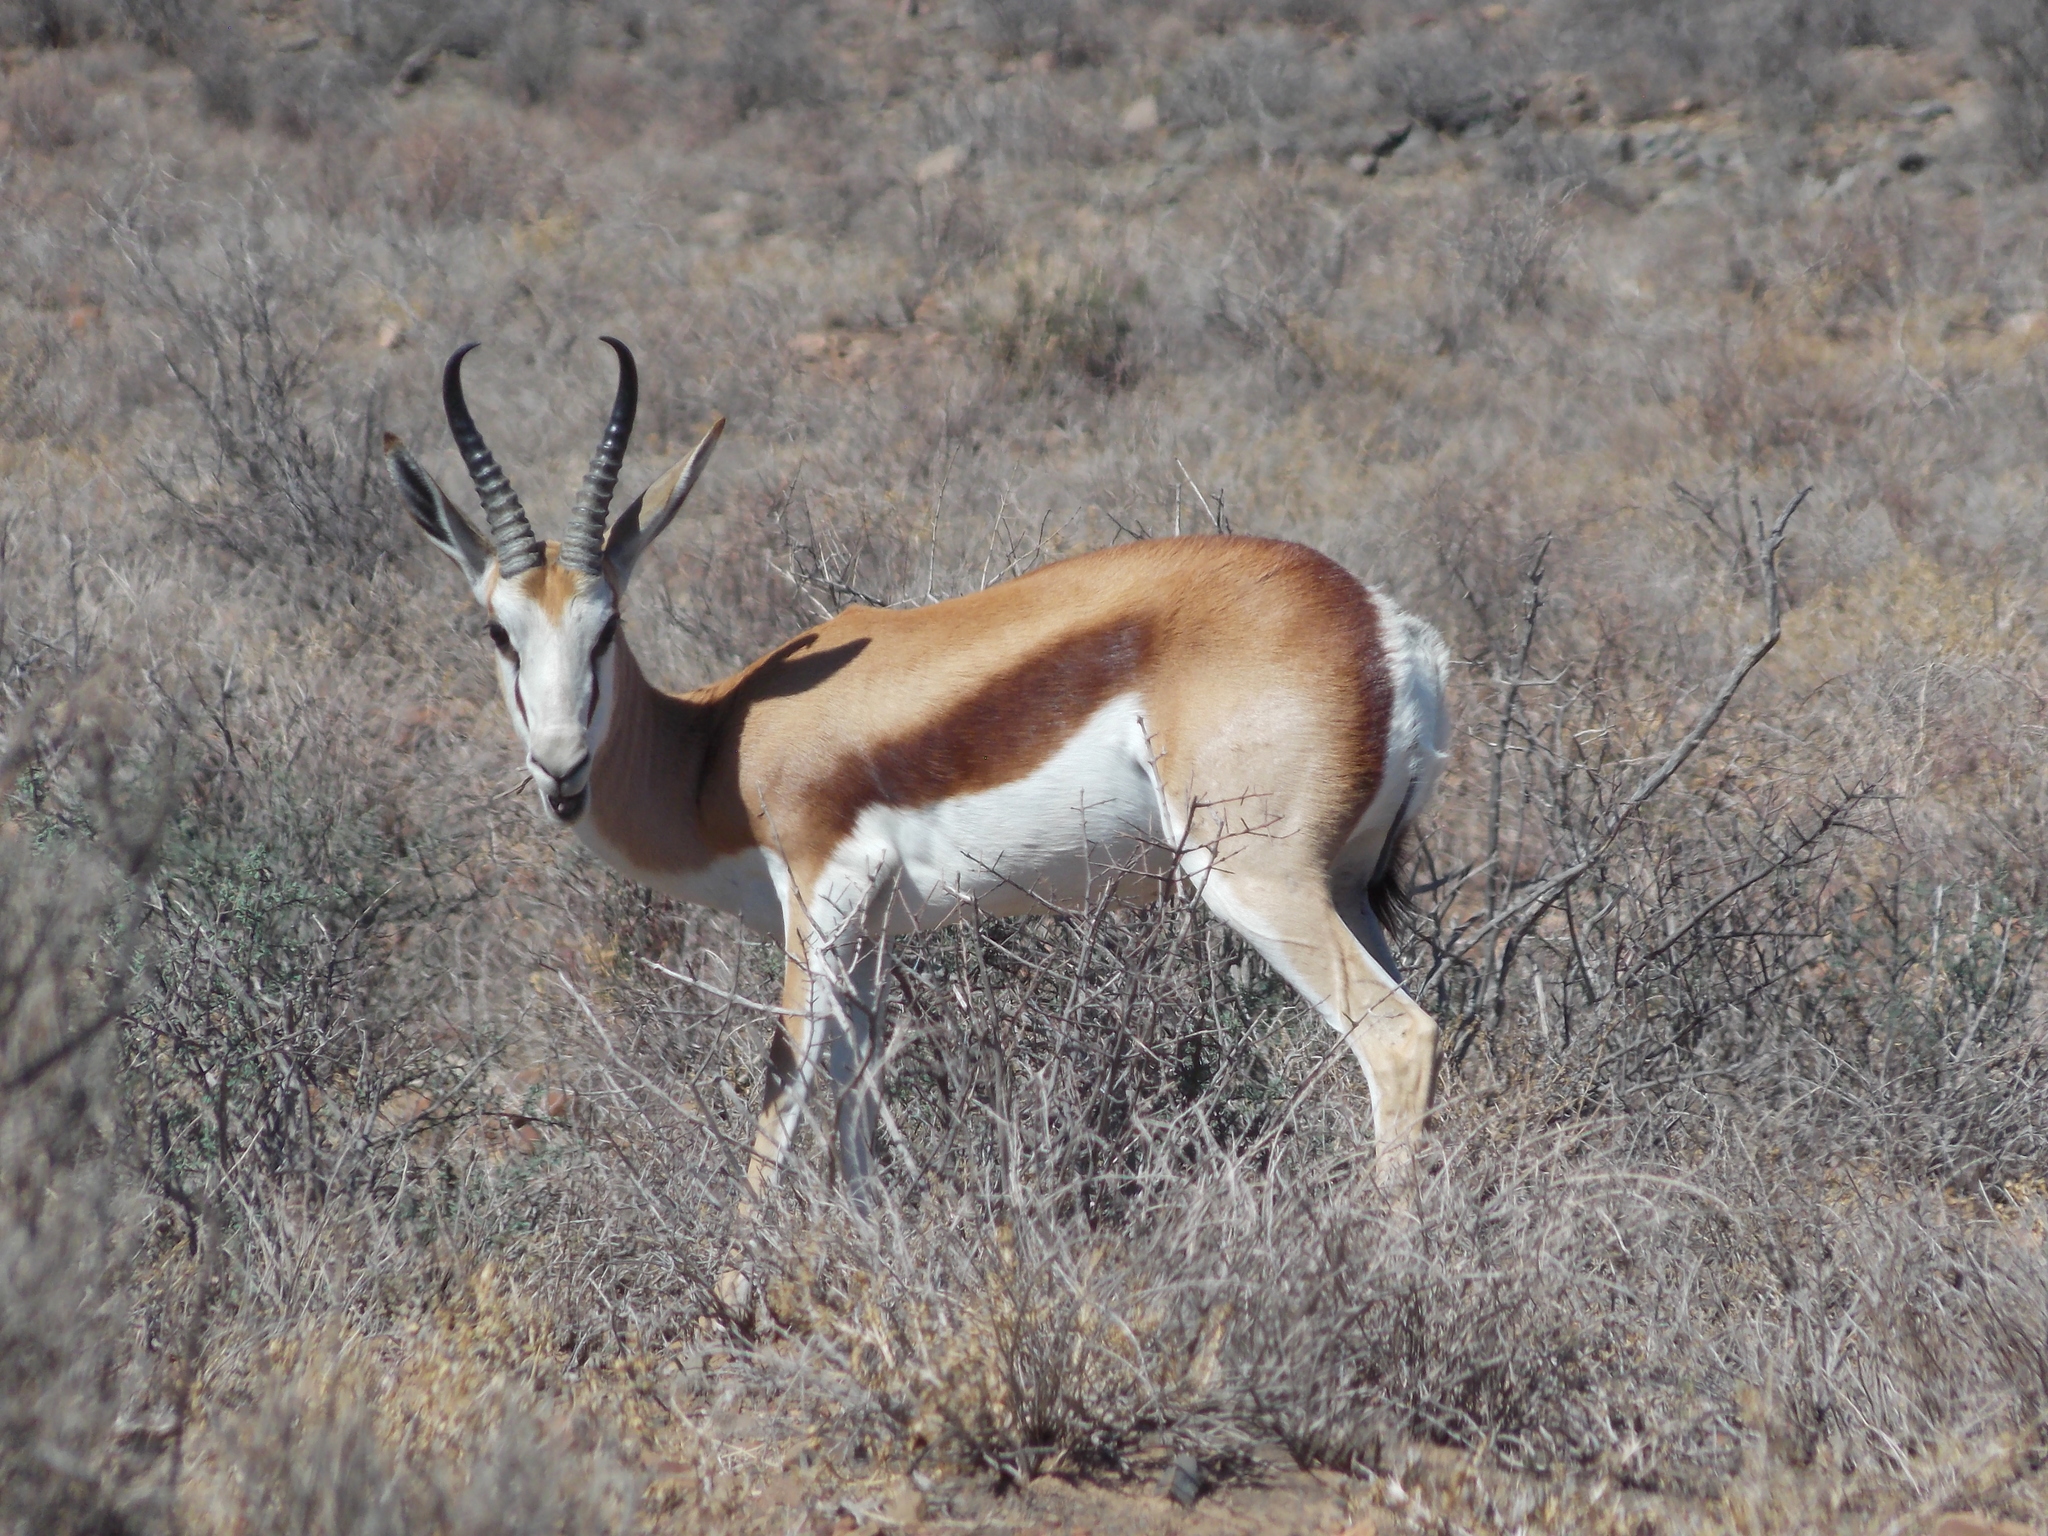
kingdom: Animalia
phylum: Chordata
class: Mammalia
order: Artiodactyla
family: Bovidae
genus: Antidorcas
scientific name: Antidorcas marsupialis
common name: Springbok
